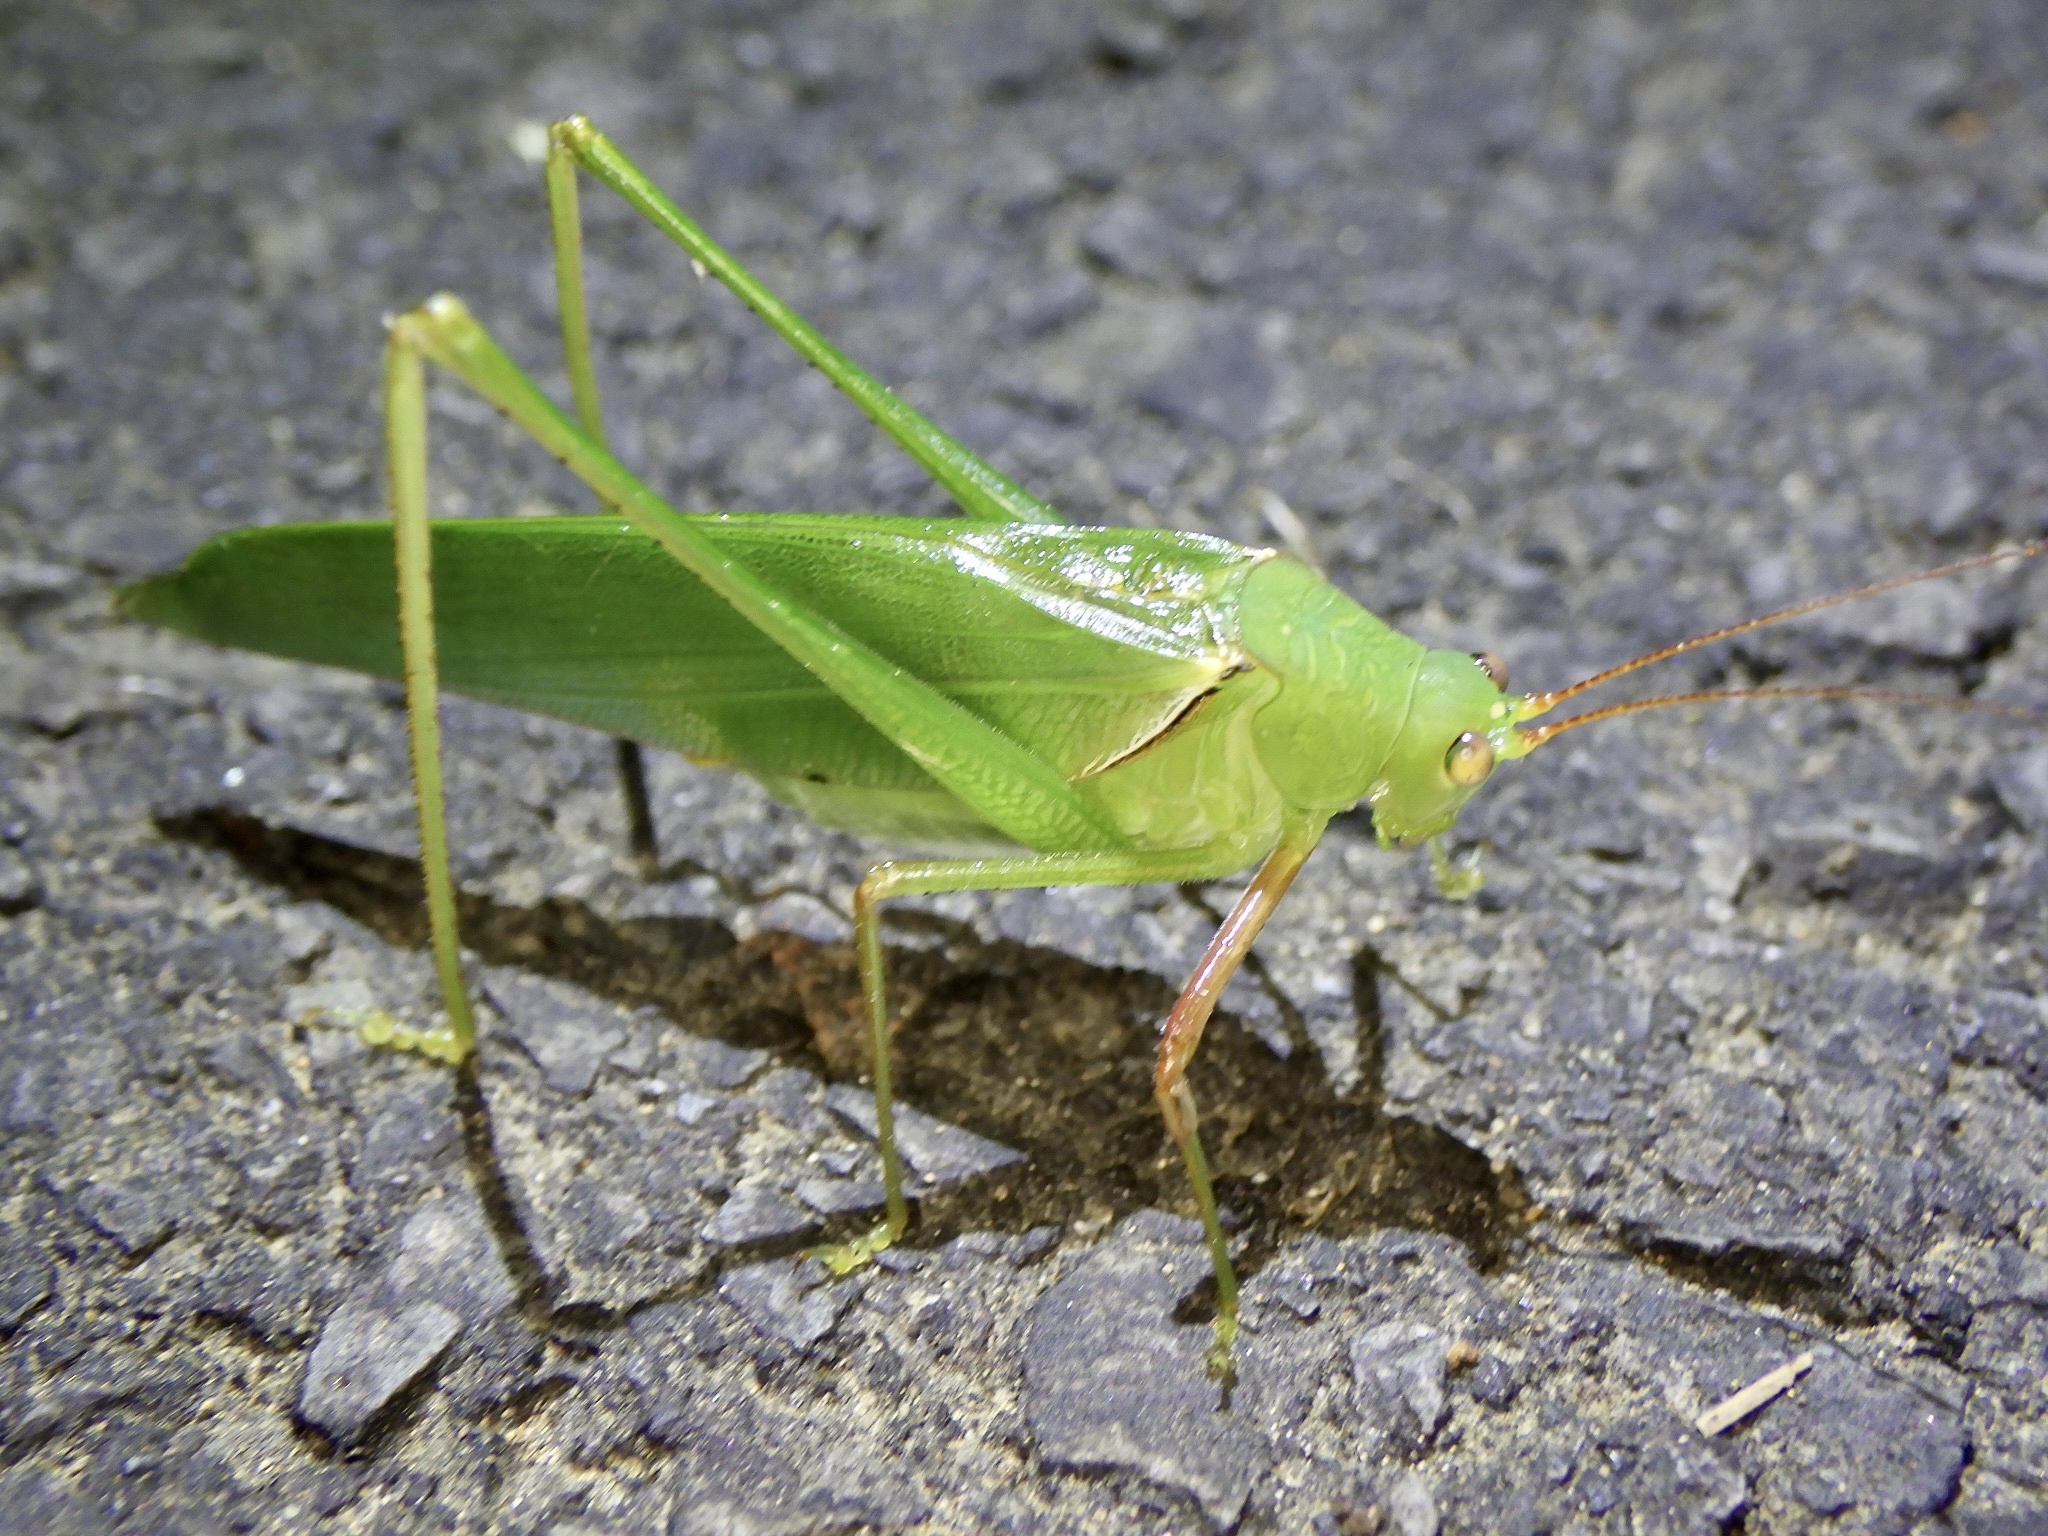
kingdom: Animalia
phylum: Arthropoda
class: Insecta
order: Orthoptera
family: Tettigoniidae
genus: Sinochlora
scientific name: Sinochlora longifissa
